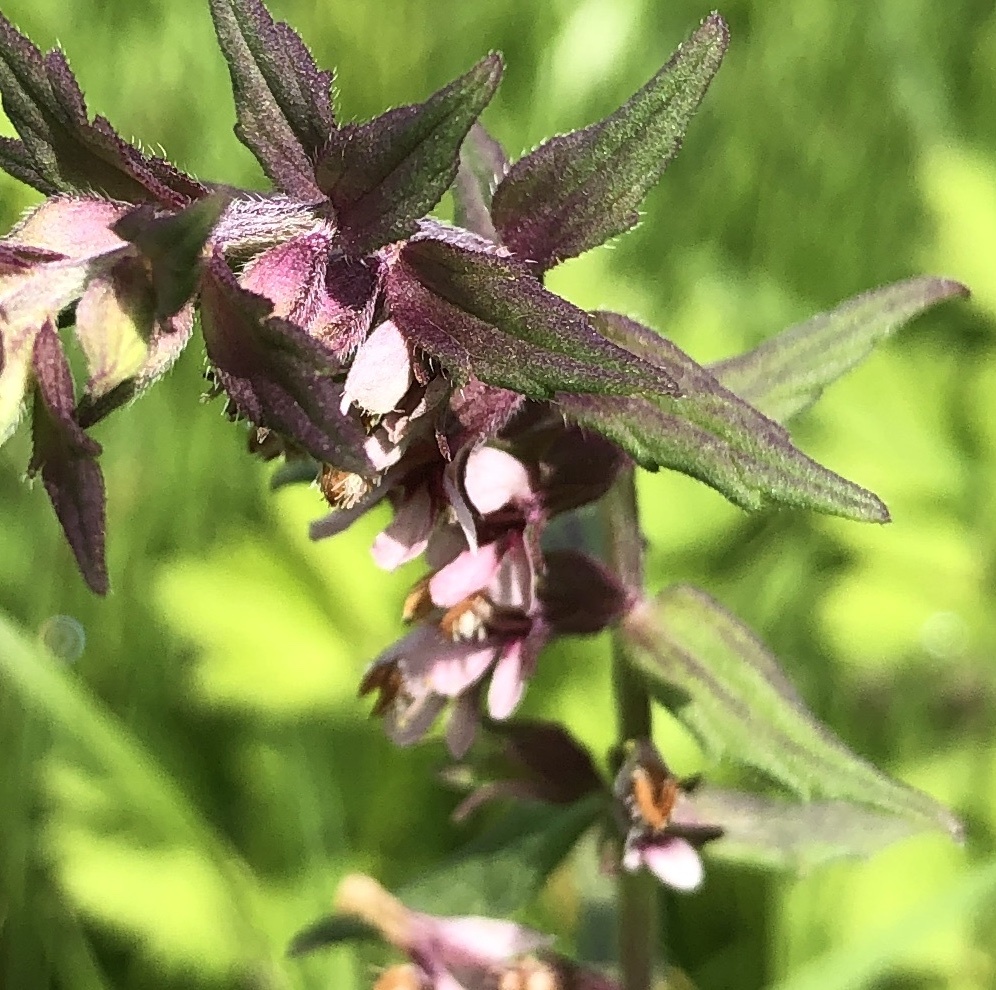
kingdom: Plantae
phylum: Tracheophyta
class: Magnoliopsida
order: Lamiales
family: Orobanchaceae
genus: Odontites
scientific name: Odontites vulgaris
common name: Broomrape
